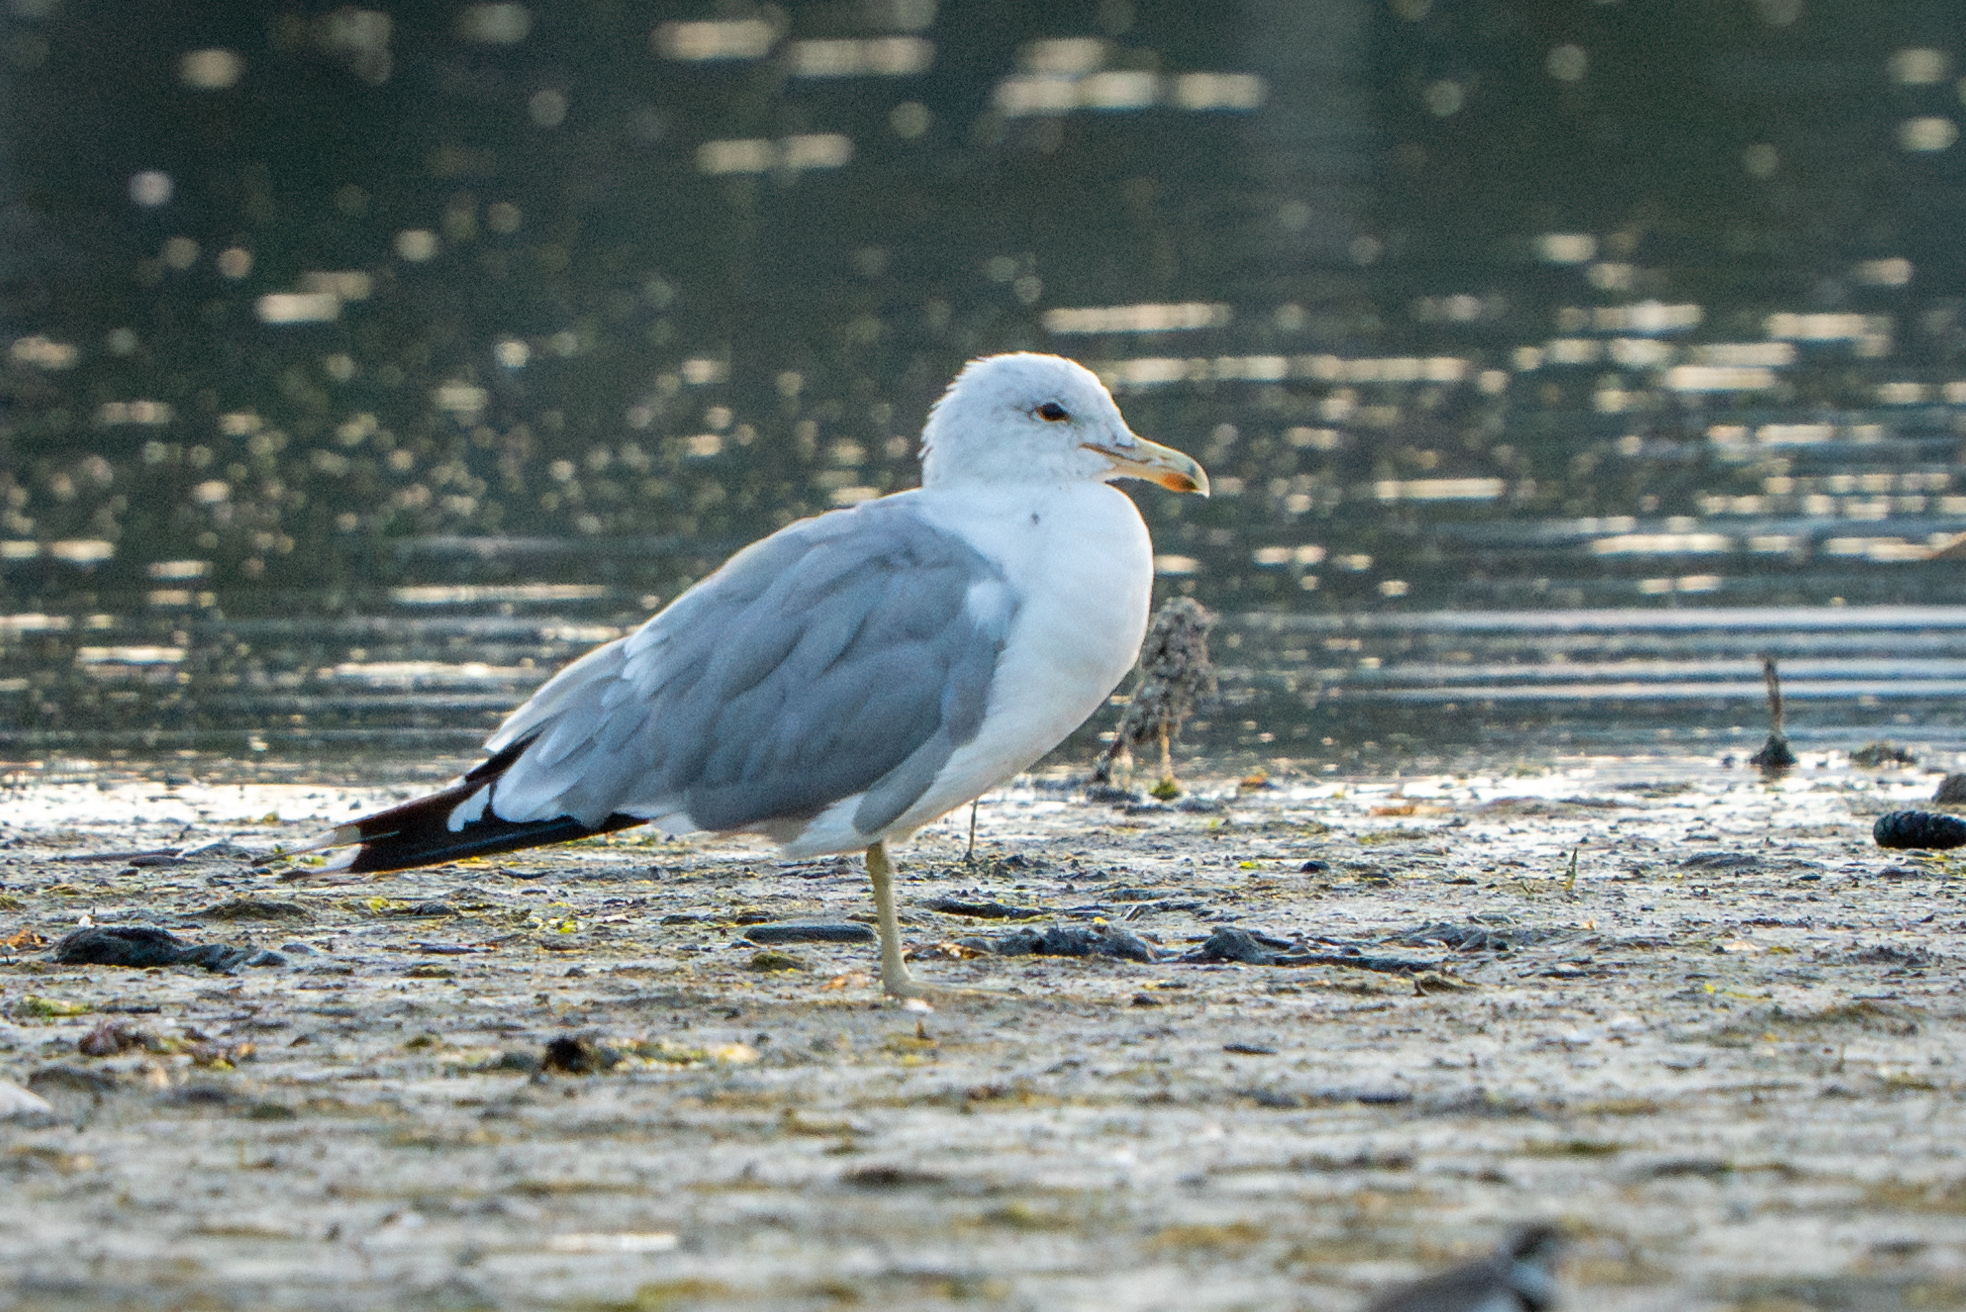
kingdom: Animalia
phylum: Chordata
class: Aves
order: Charadriiformes
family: Laridae
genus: Larus
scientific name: Larus californicus
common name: California gull
